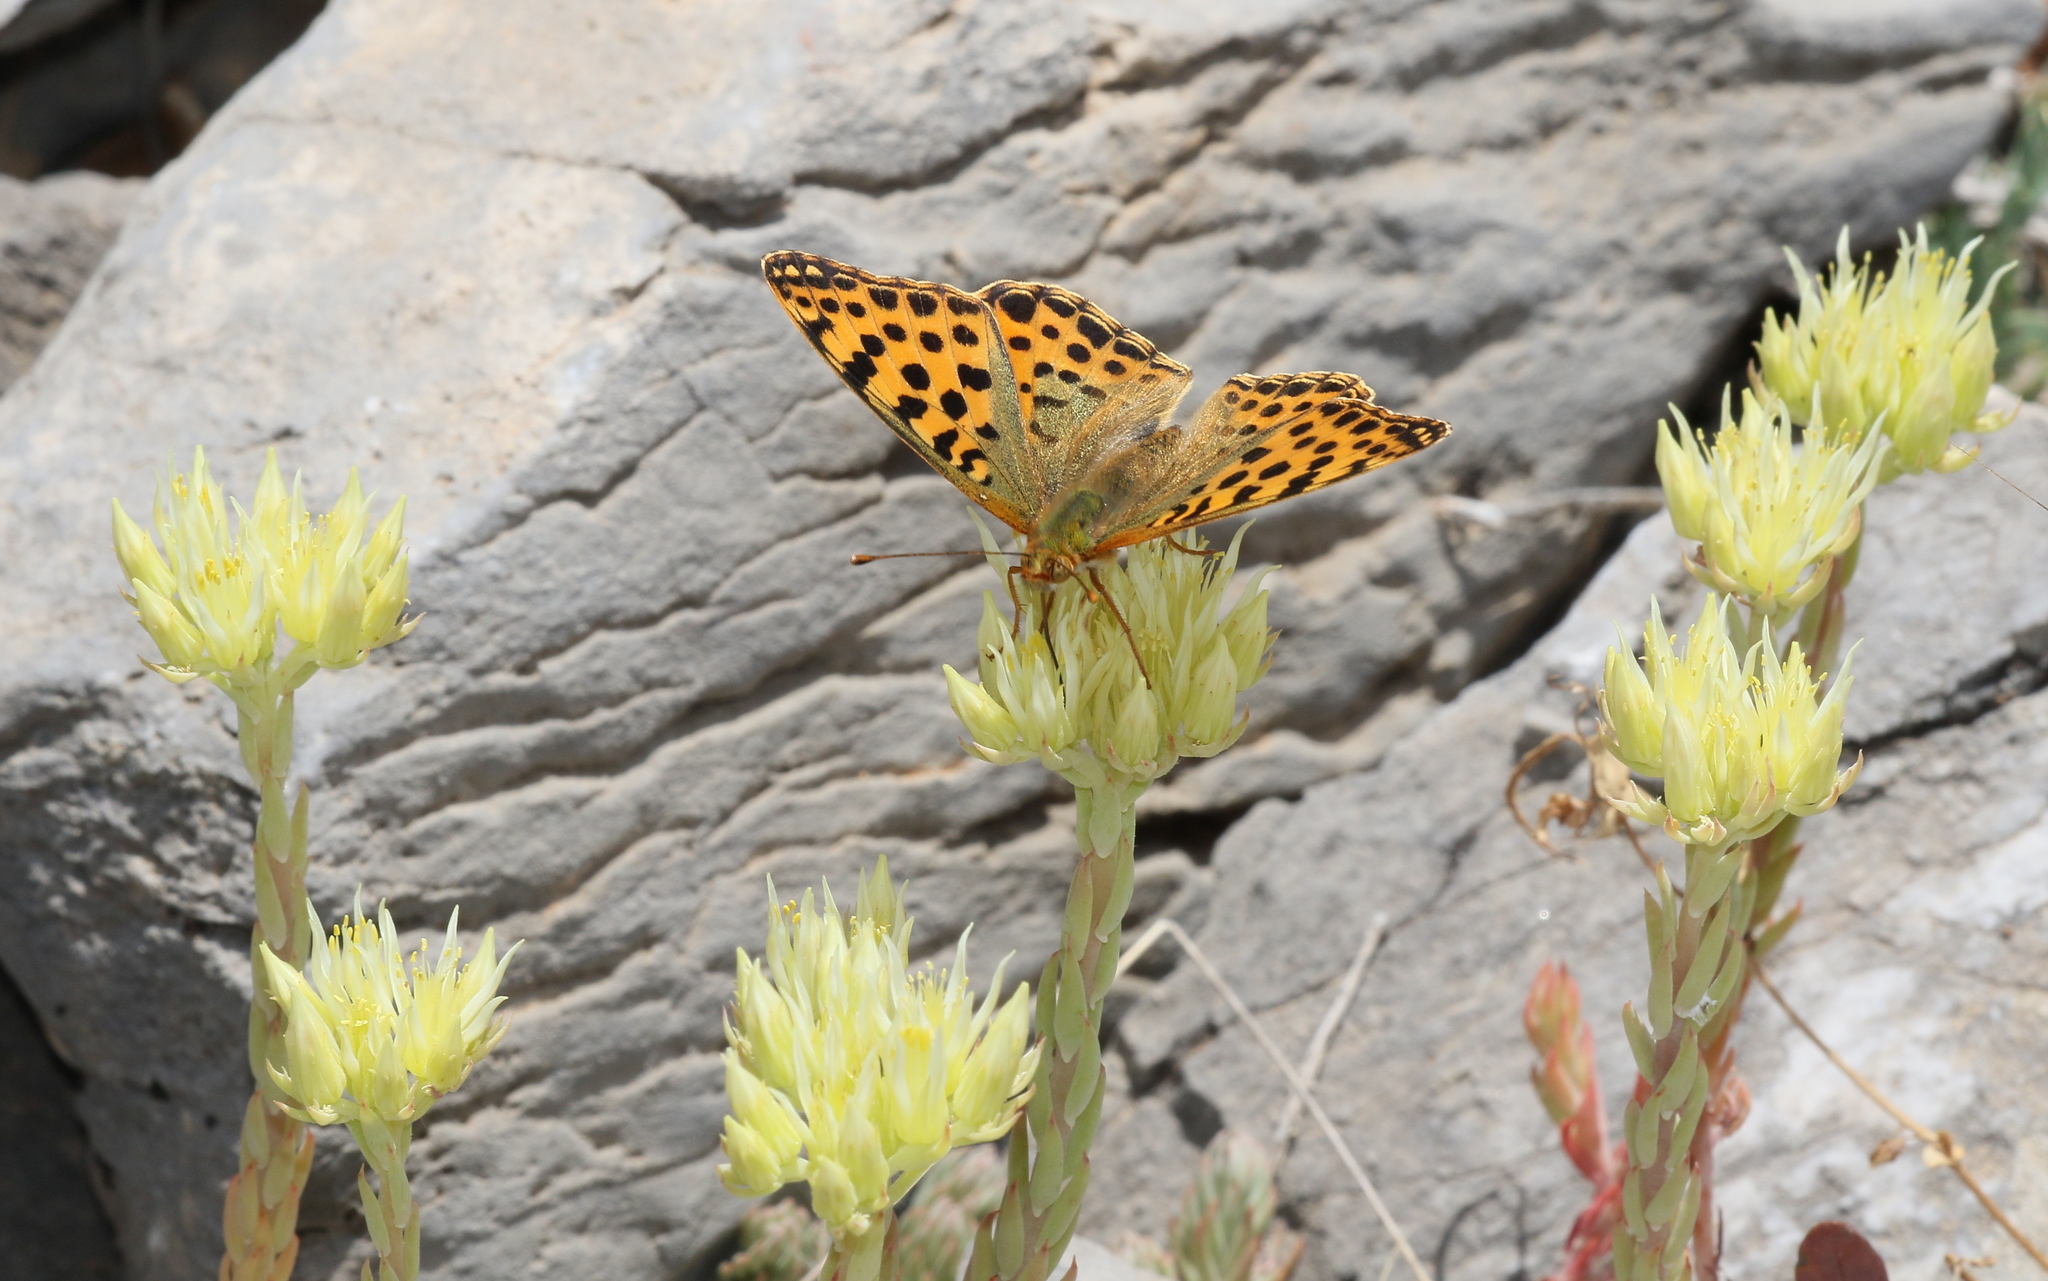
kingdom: Animalia
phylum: Arthropoda
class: Insecta
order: Lepidoptera
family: Nymphalidae
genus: Issoria
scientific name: Issoria lathonia
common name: Queen of spain fritillary
